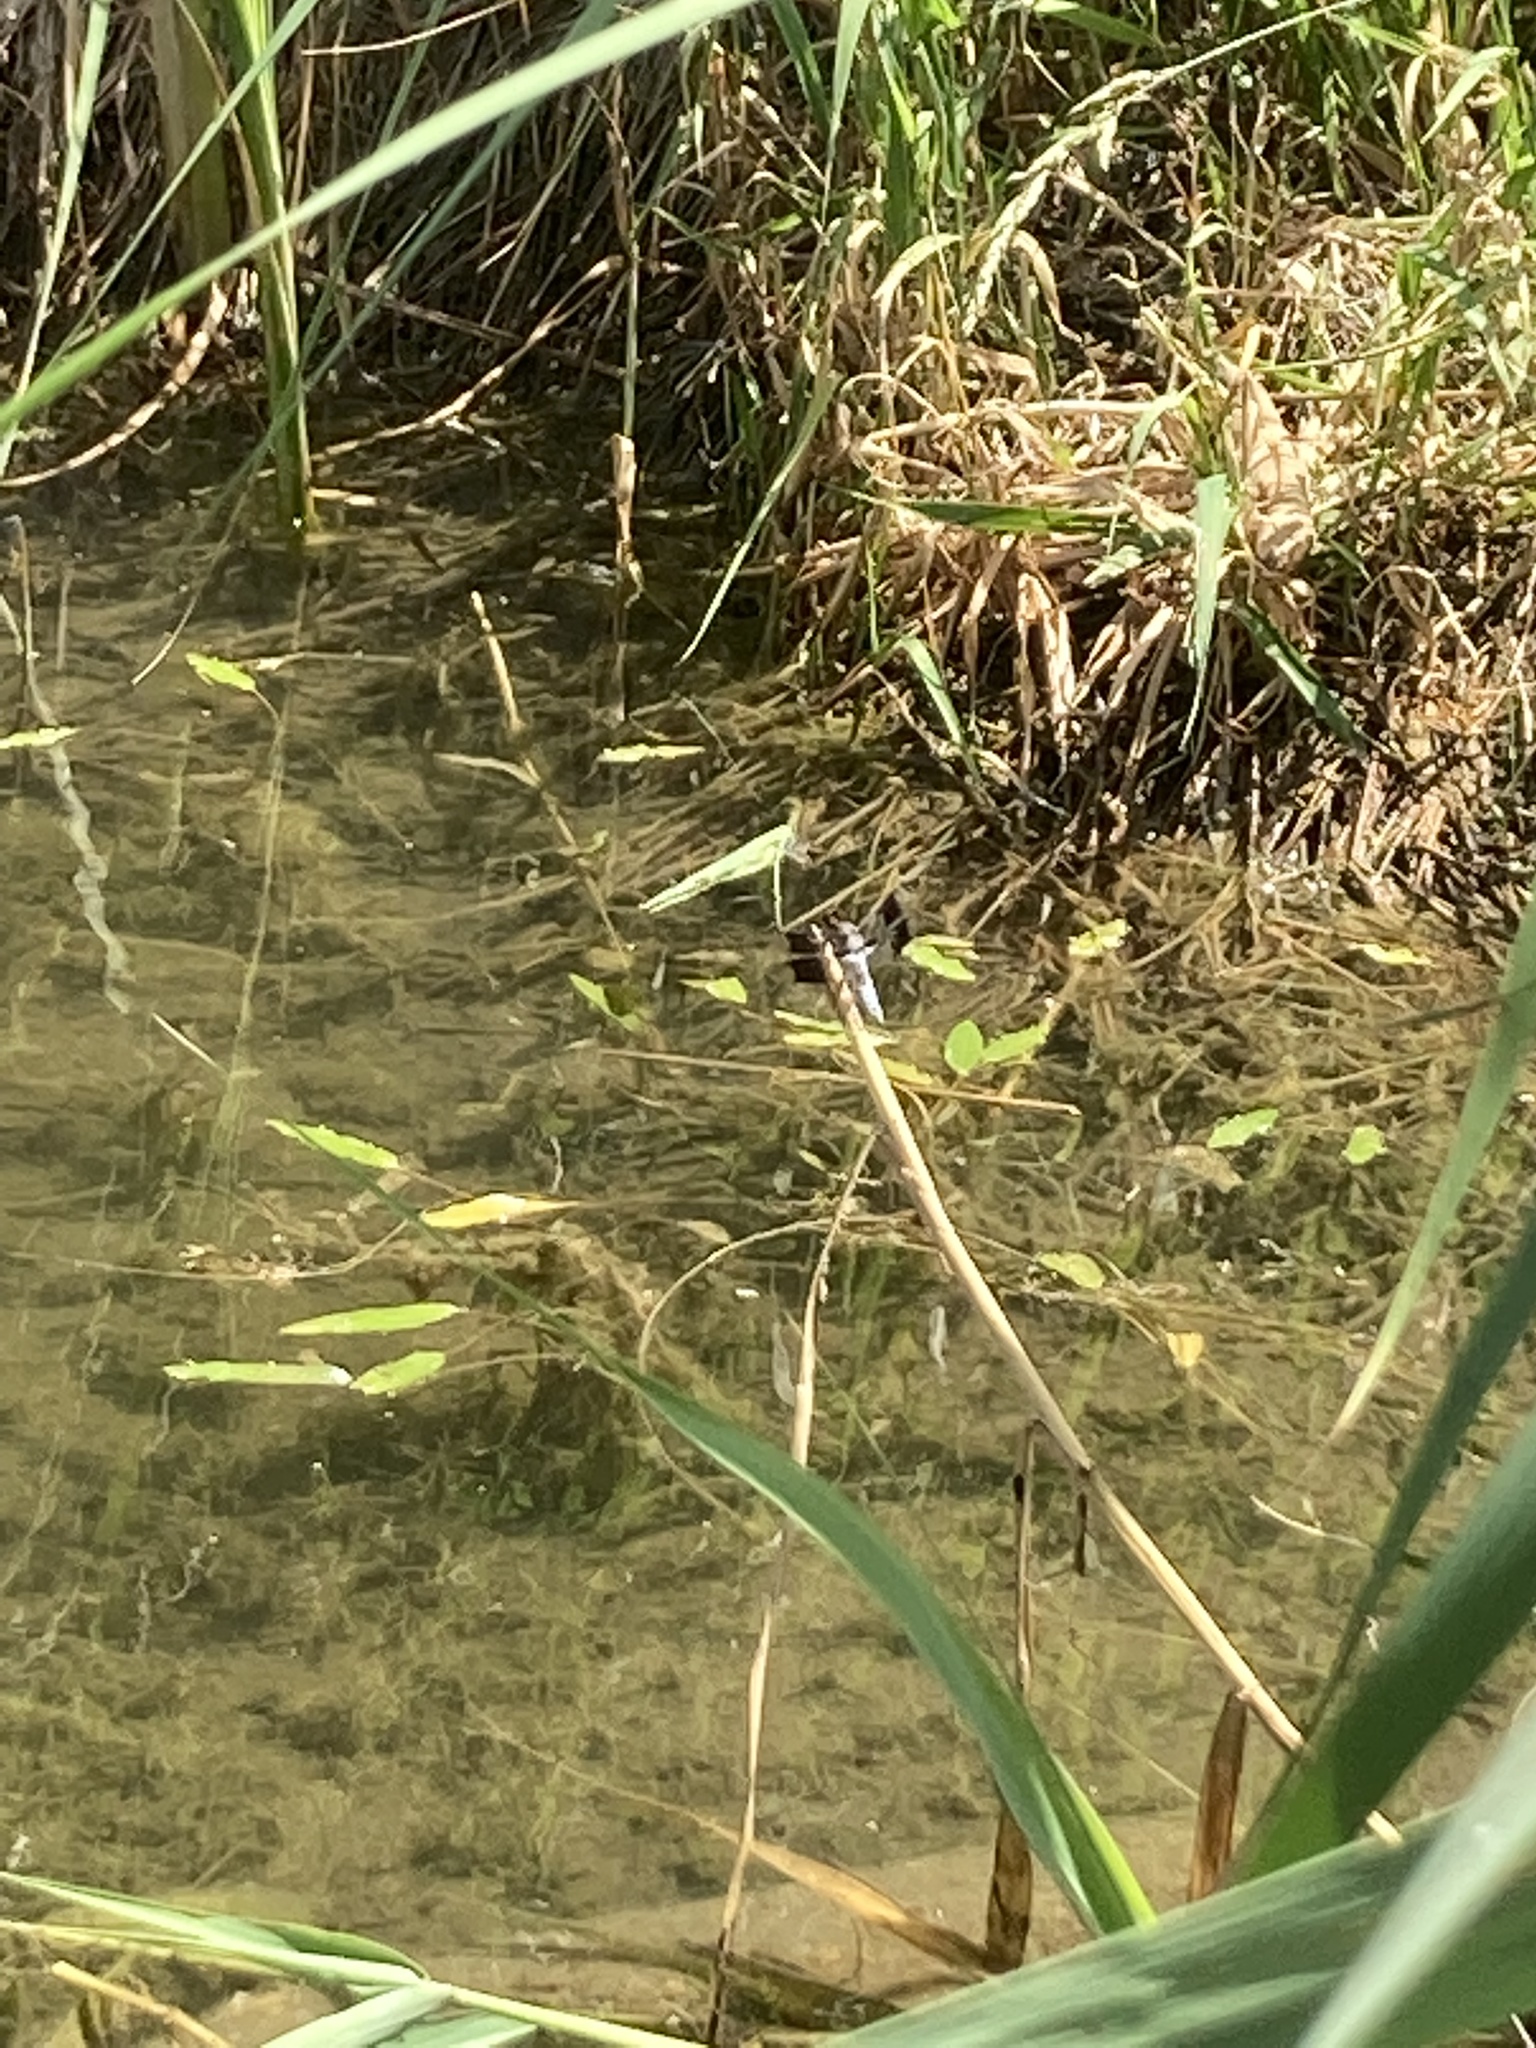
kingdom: Animalia
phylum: Arthropoda
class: Insecta
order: Odonata
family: Libellulidae
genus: Plathemis
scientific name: Plathemis lydia
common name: Common whitetail
